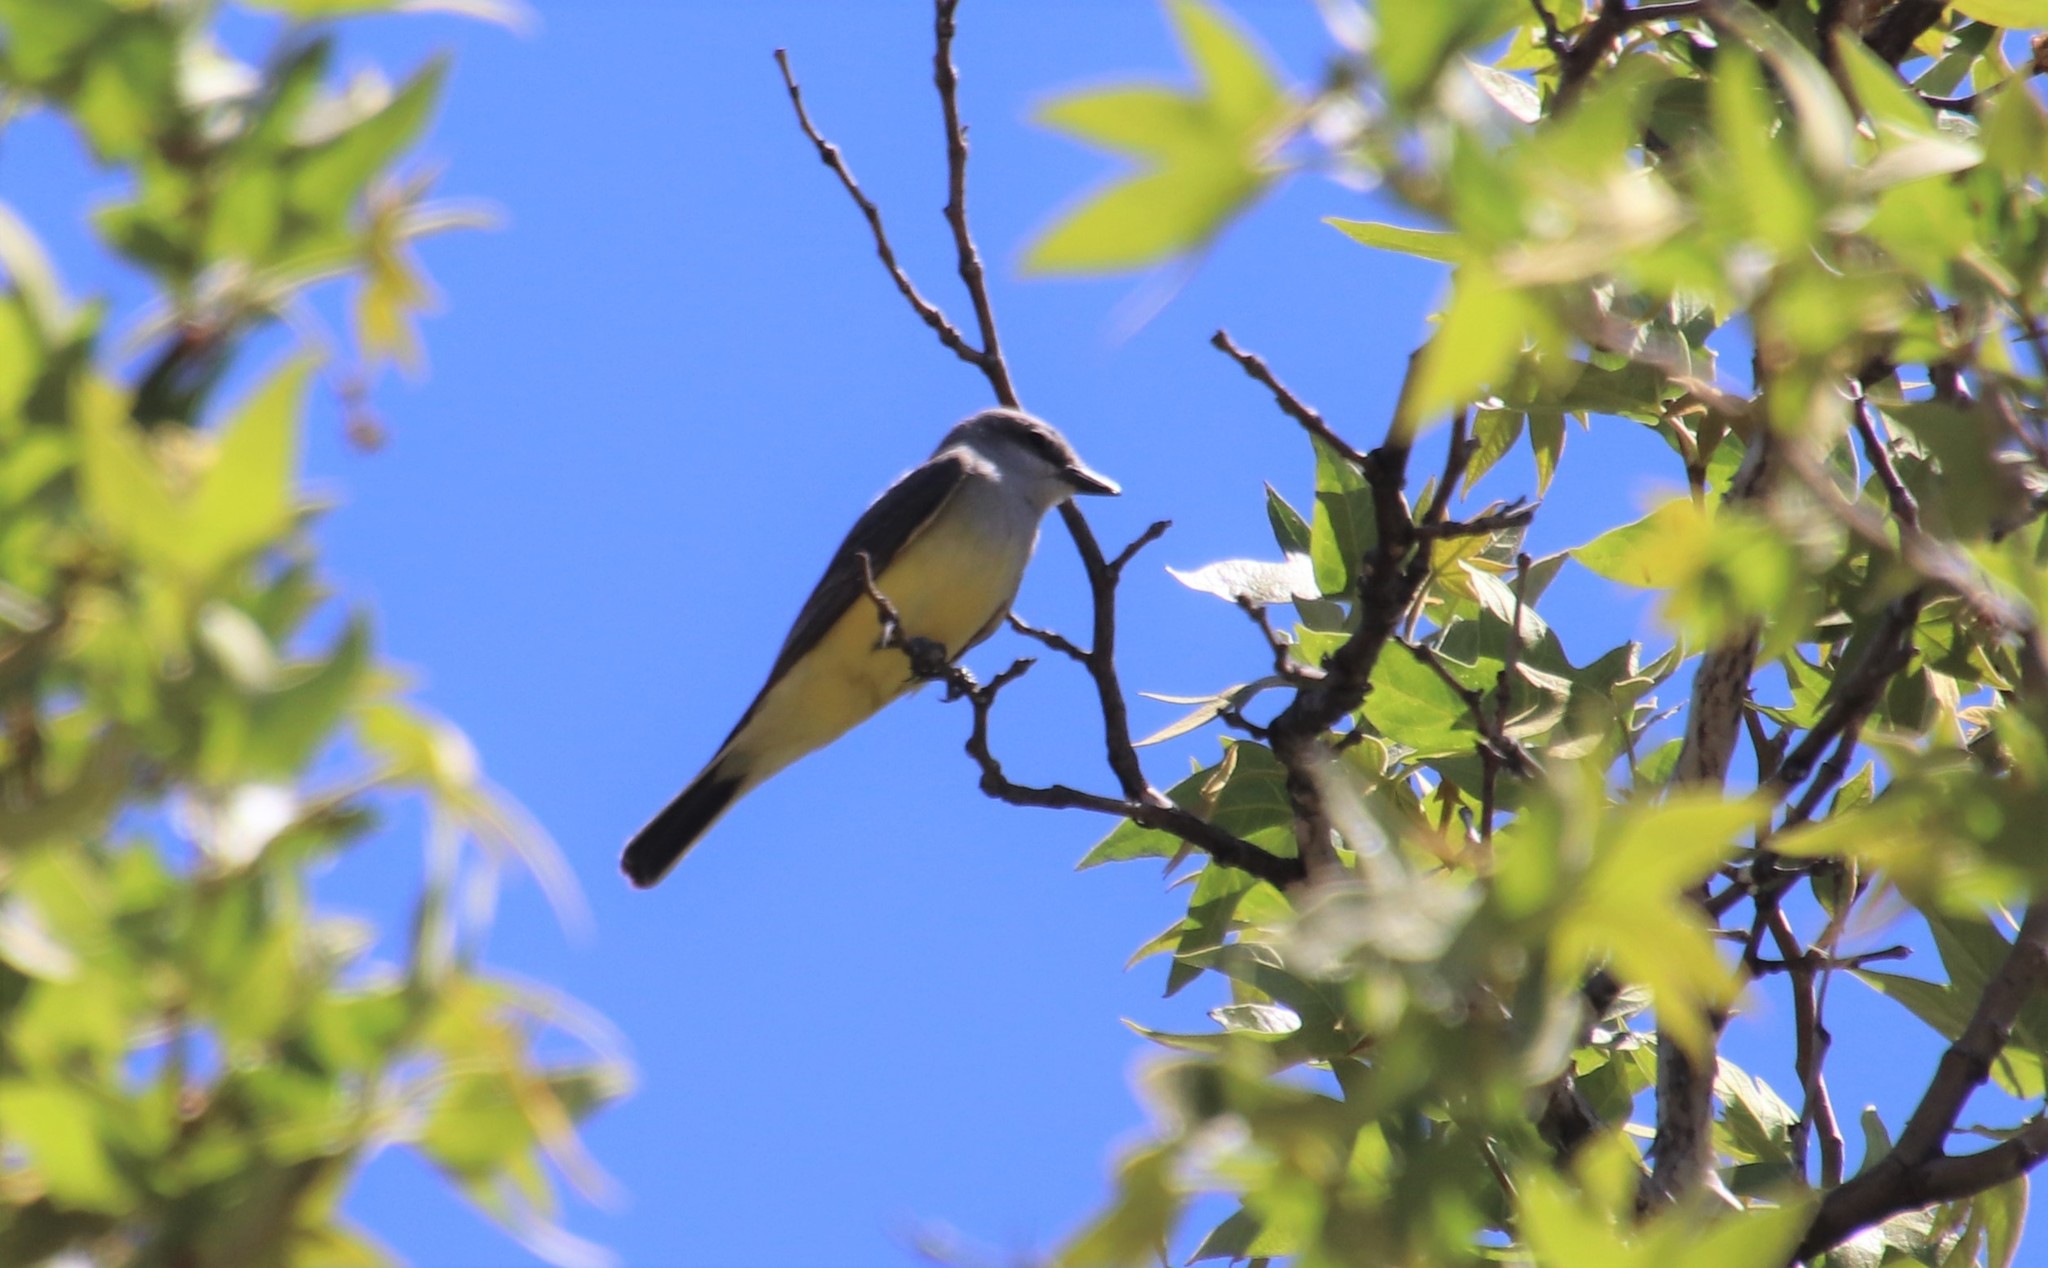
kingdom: Animalia
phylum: Chordata
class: Aves
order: Passeriformes
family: Tyrannidae
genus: Tyrannus
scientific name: Tyrannus verticalis
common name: Western kingbird
